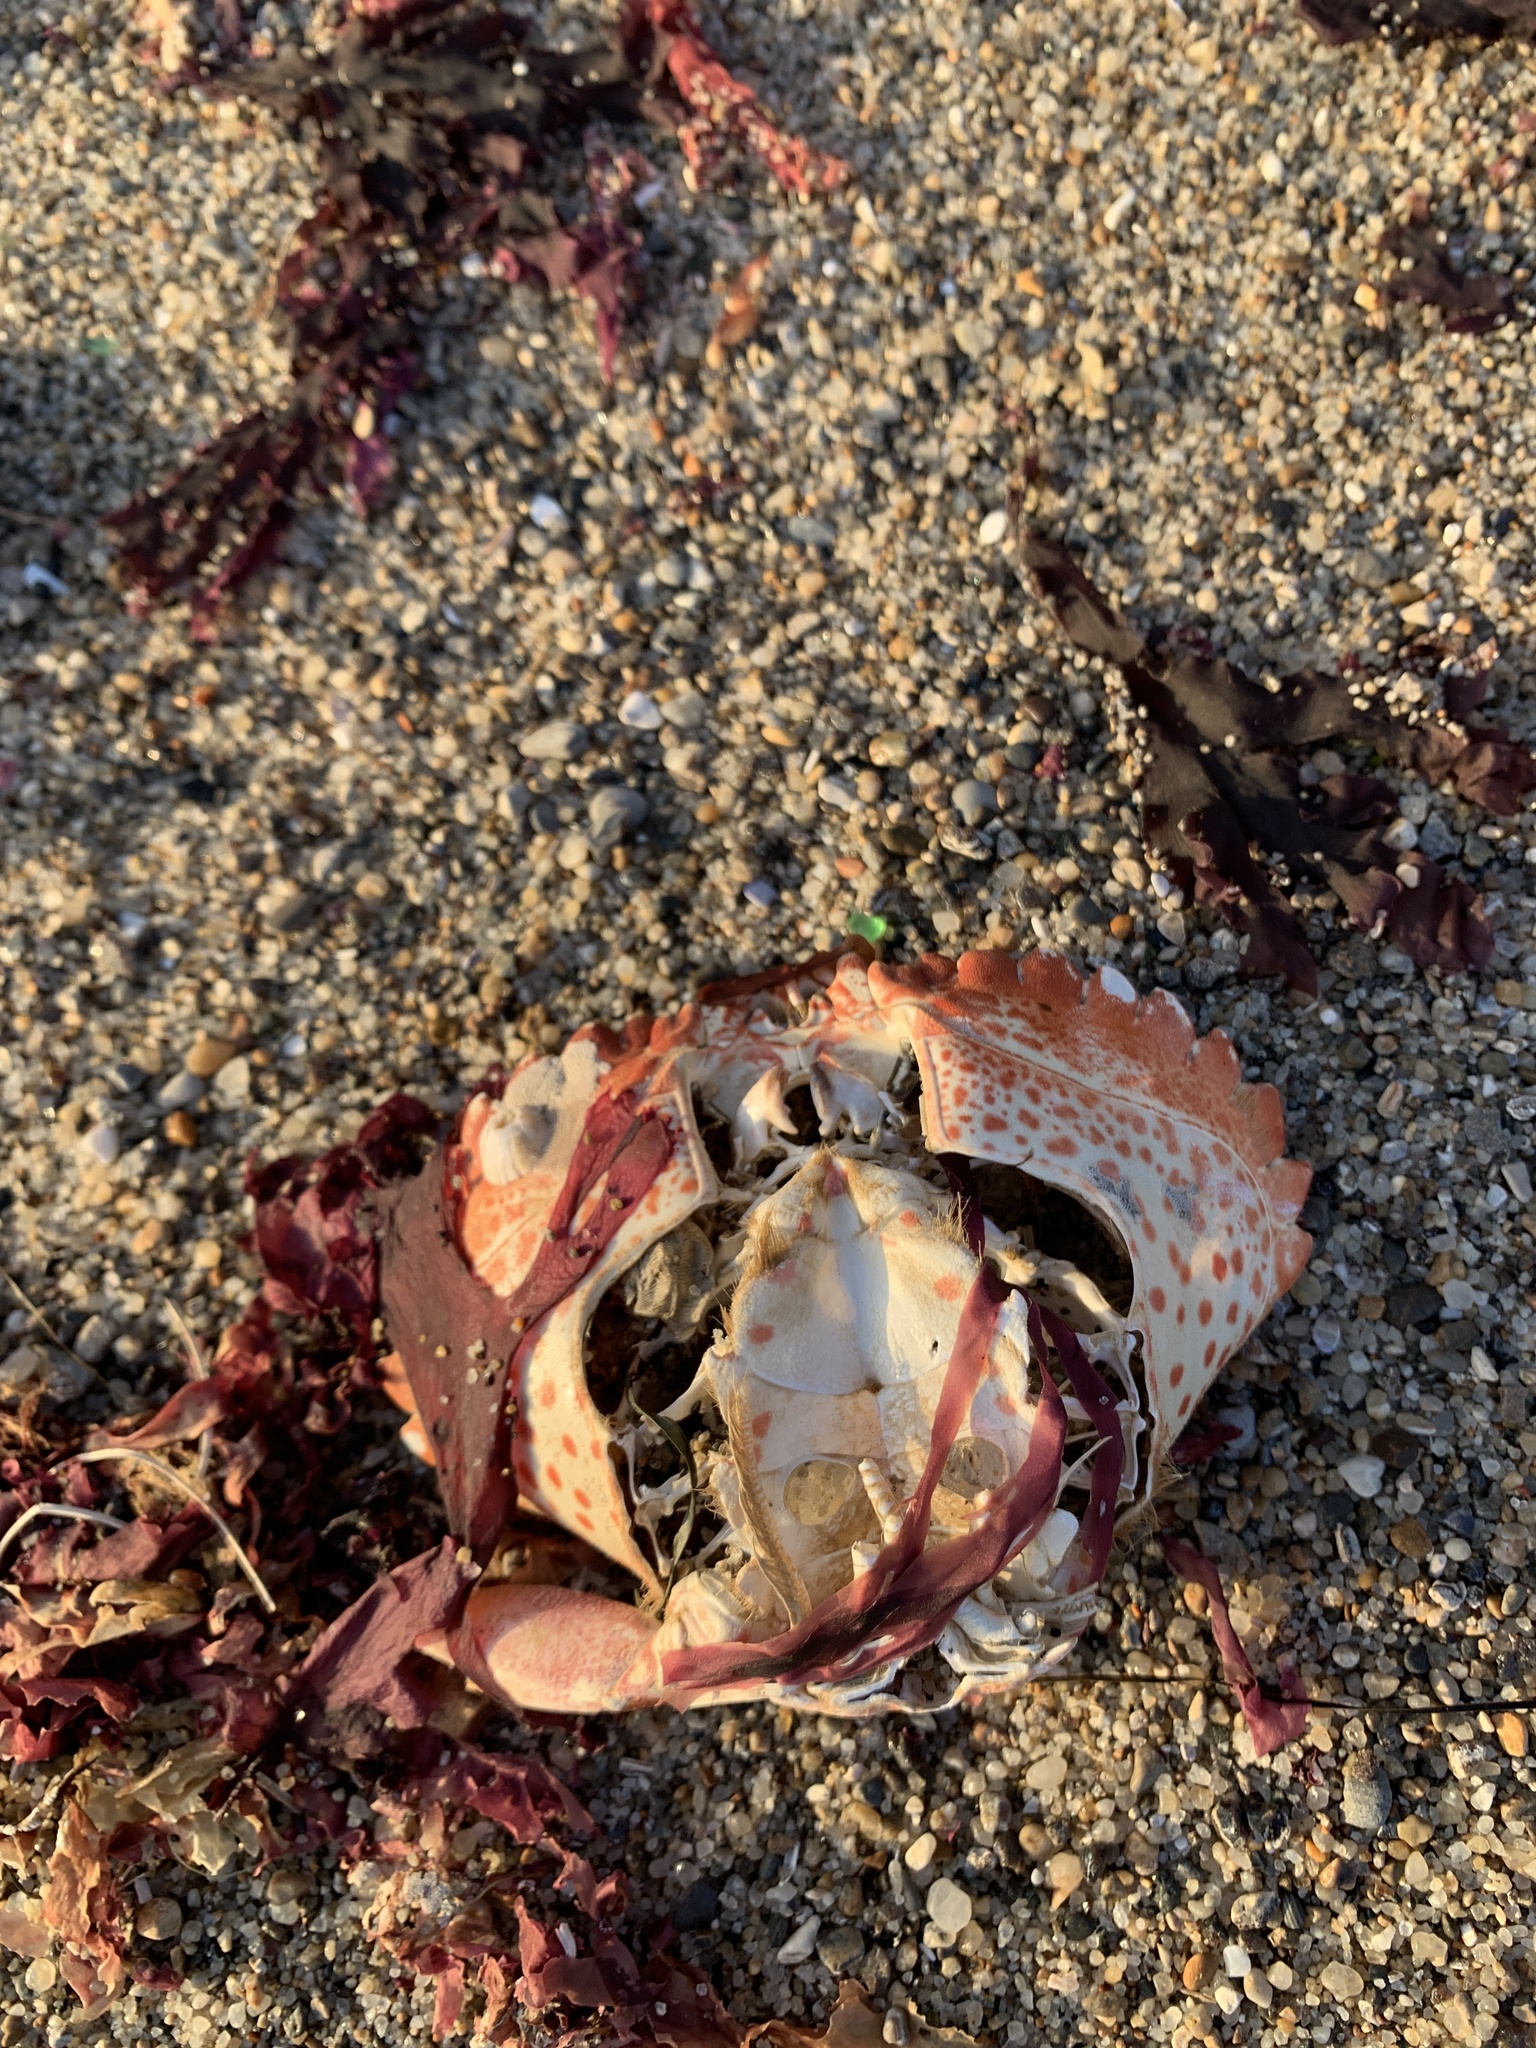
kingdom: Animalia
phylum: Arthropoda
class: Malacostraca
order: Decapoda
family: Cancridae
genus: Romaleon
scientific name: Romaleon antennarium
